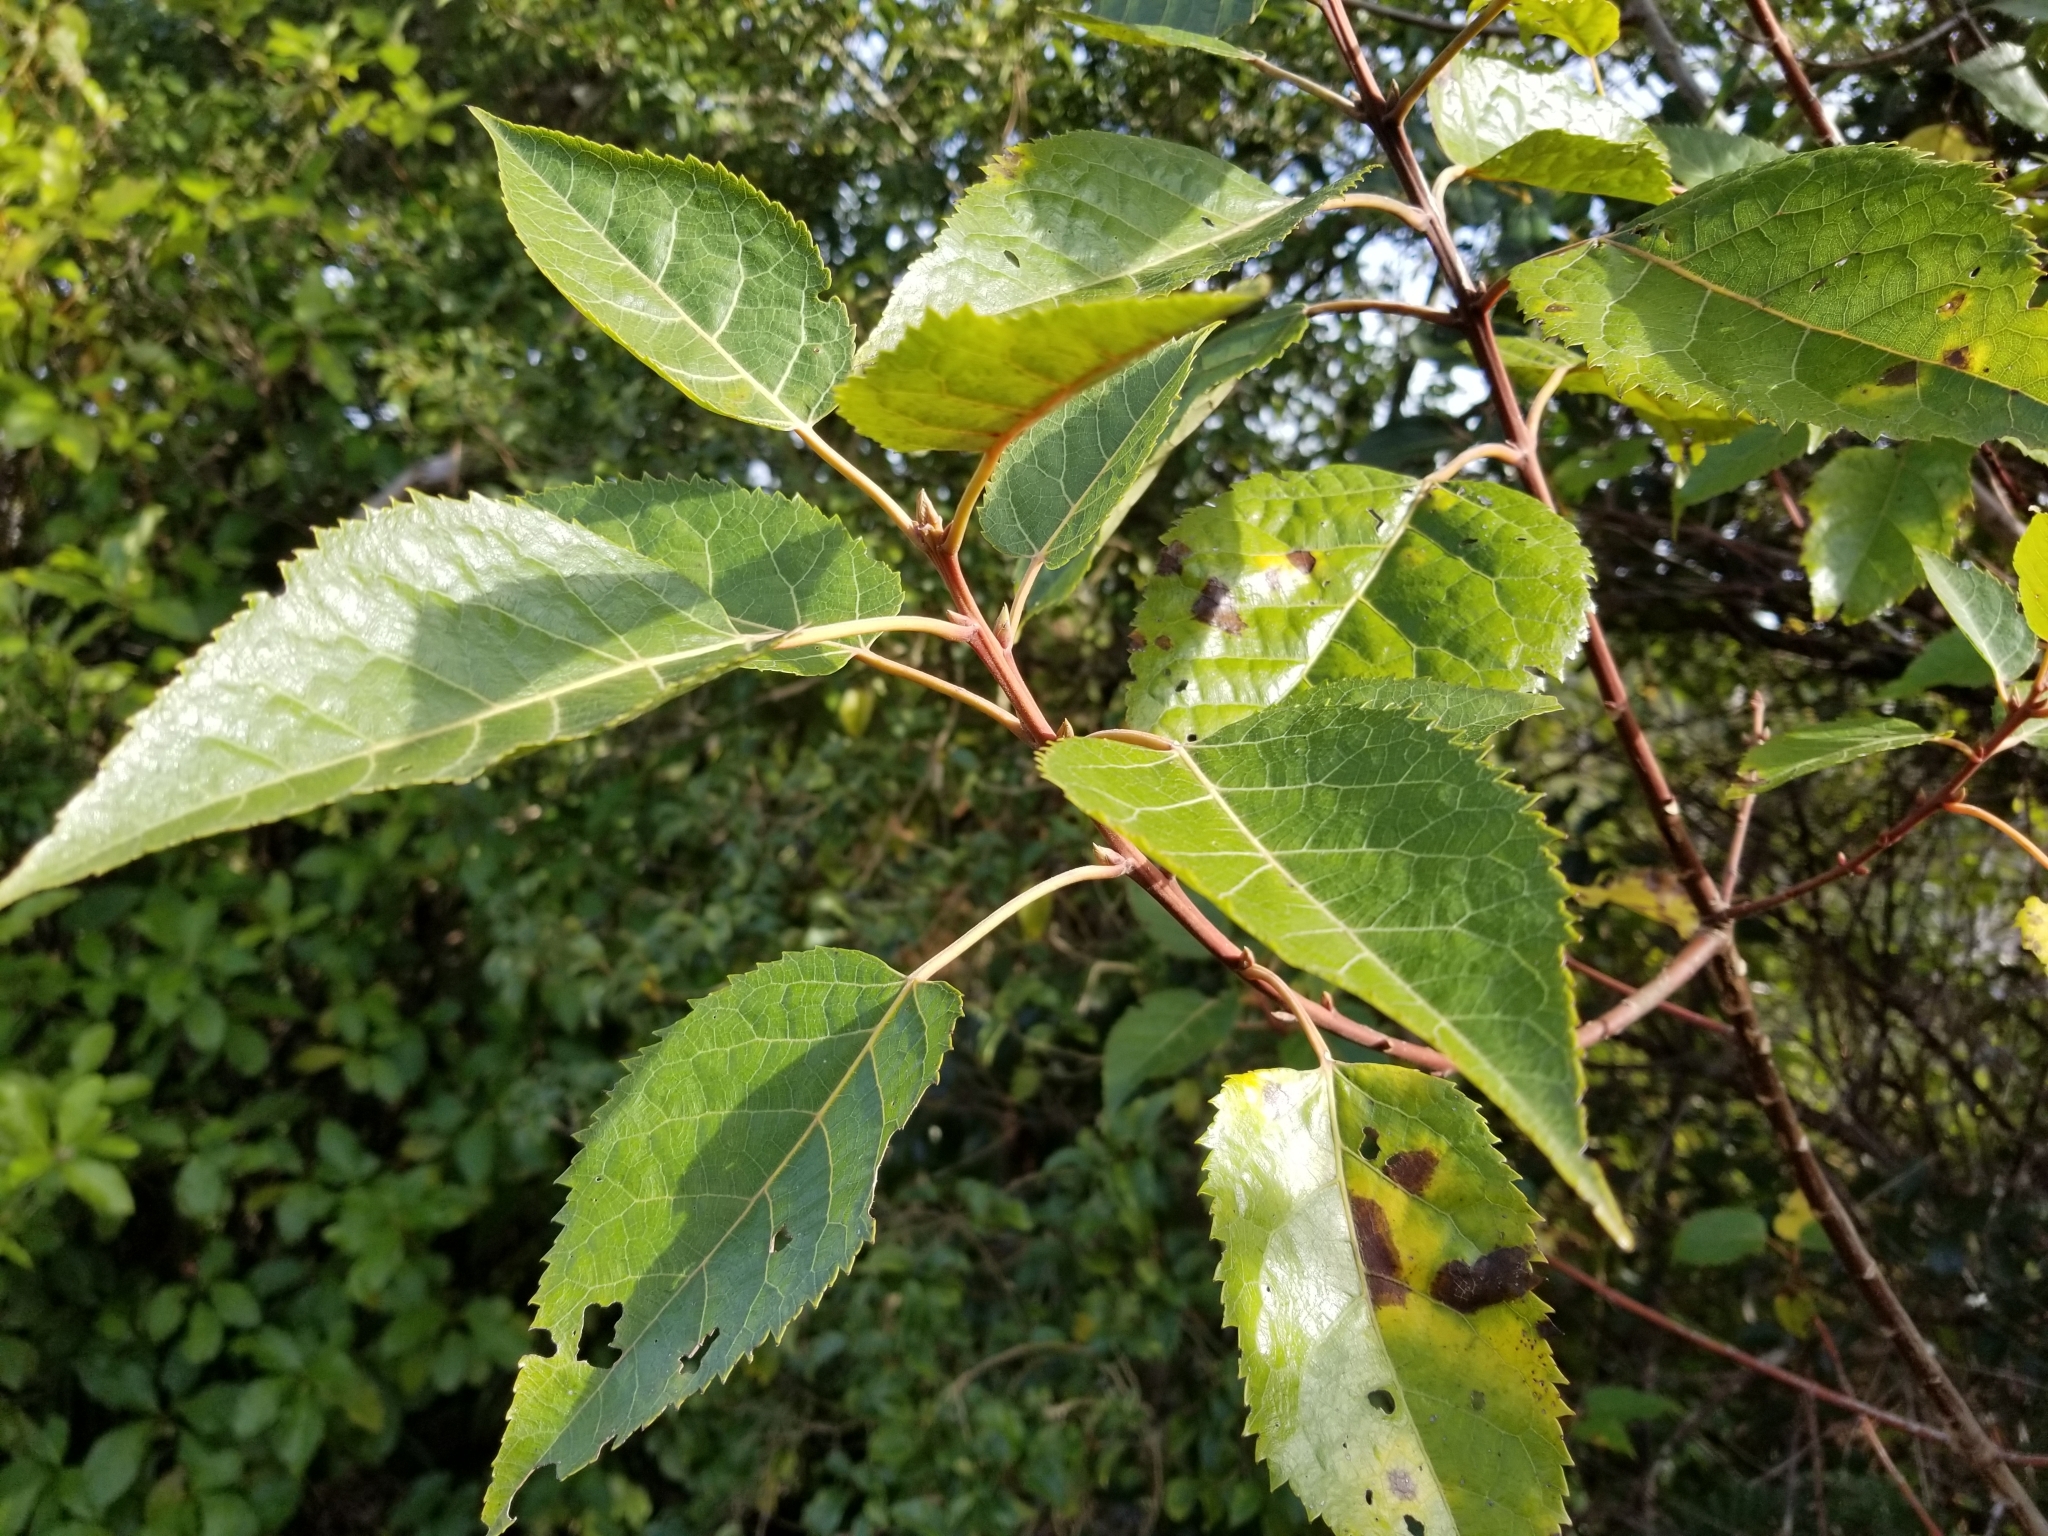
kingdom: Plantae
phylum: Tracheophyta
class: Magnoliopsida
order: Oxalidales
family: Elaeocarpaceae
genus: Aristotelia
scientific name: Aristotelia serrata
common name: New zealand wineberry
